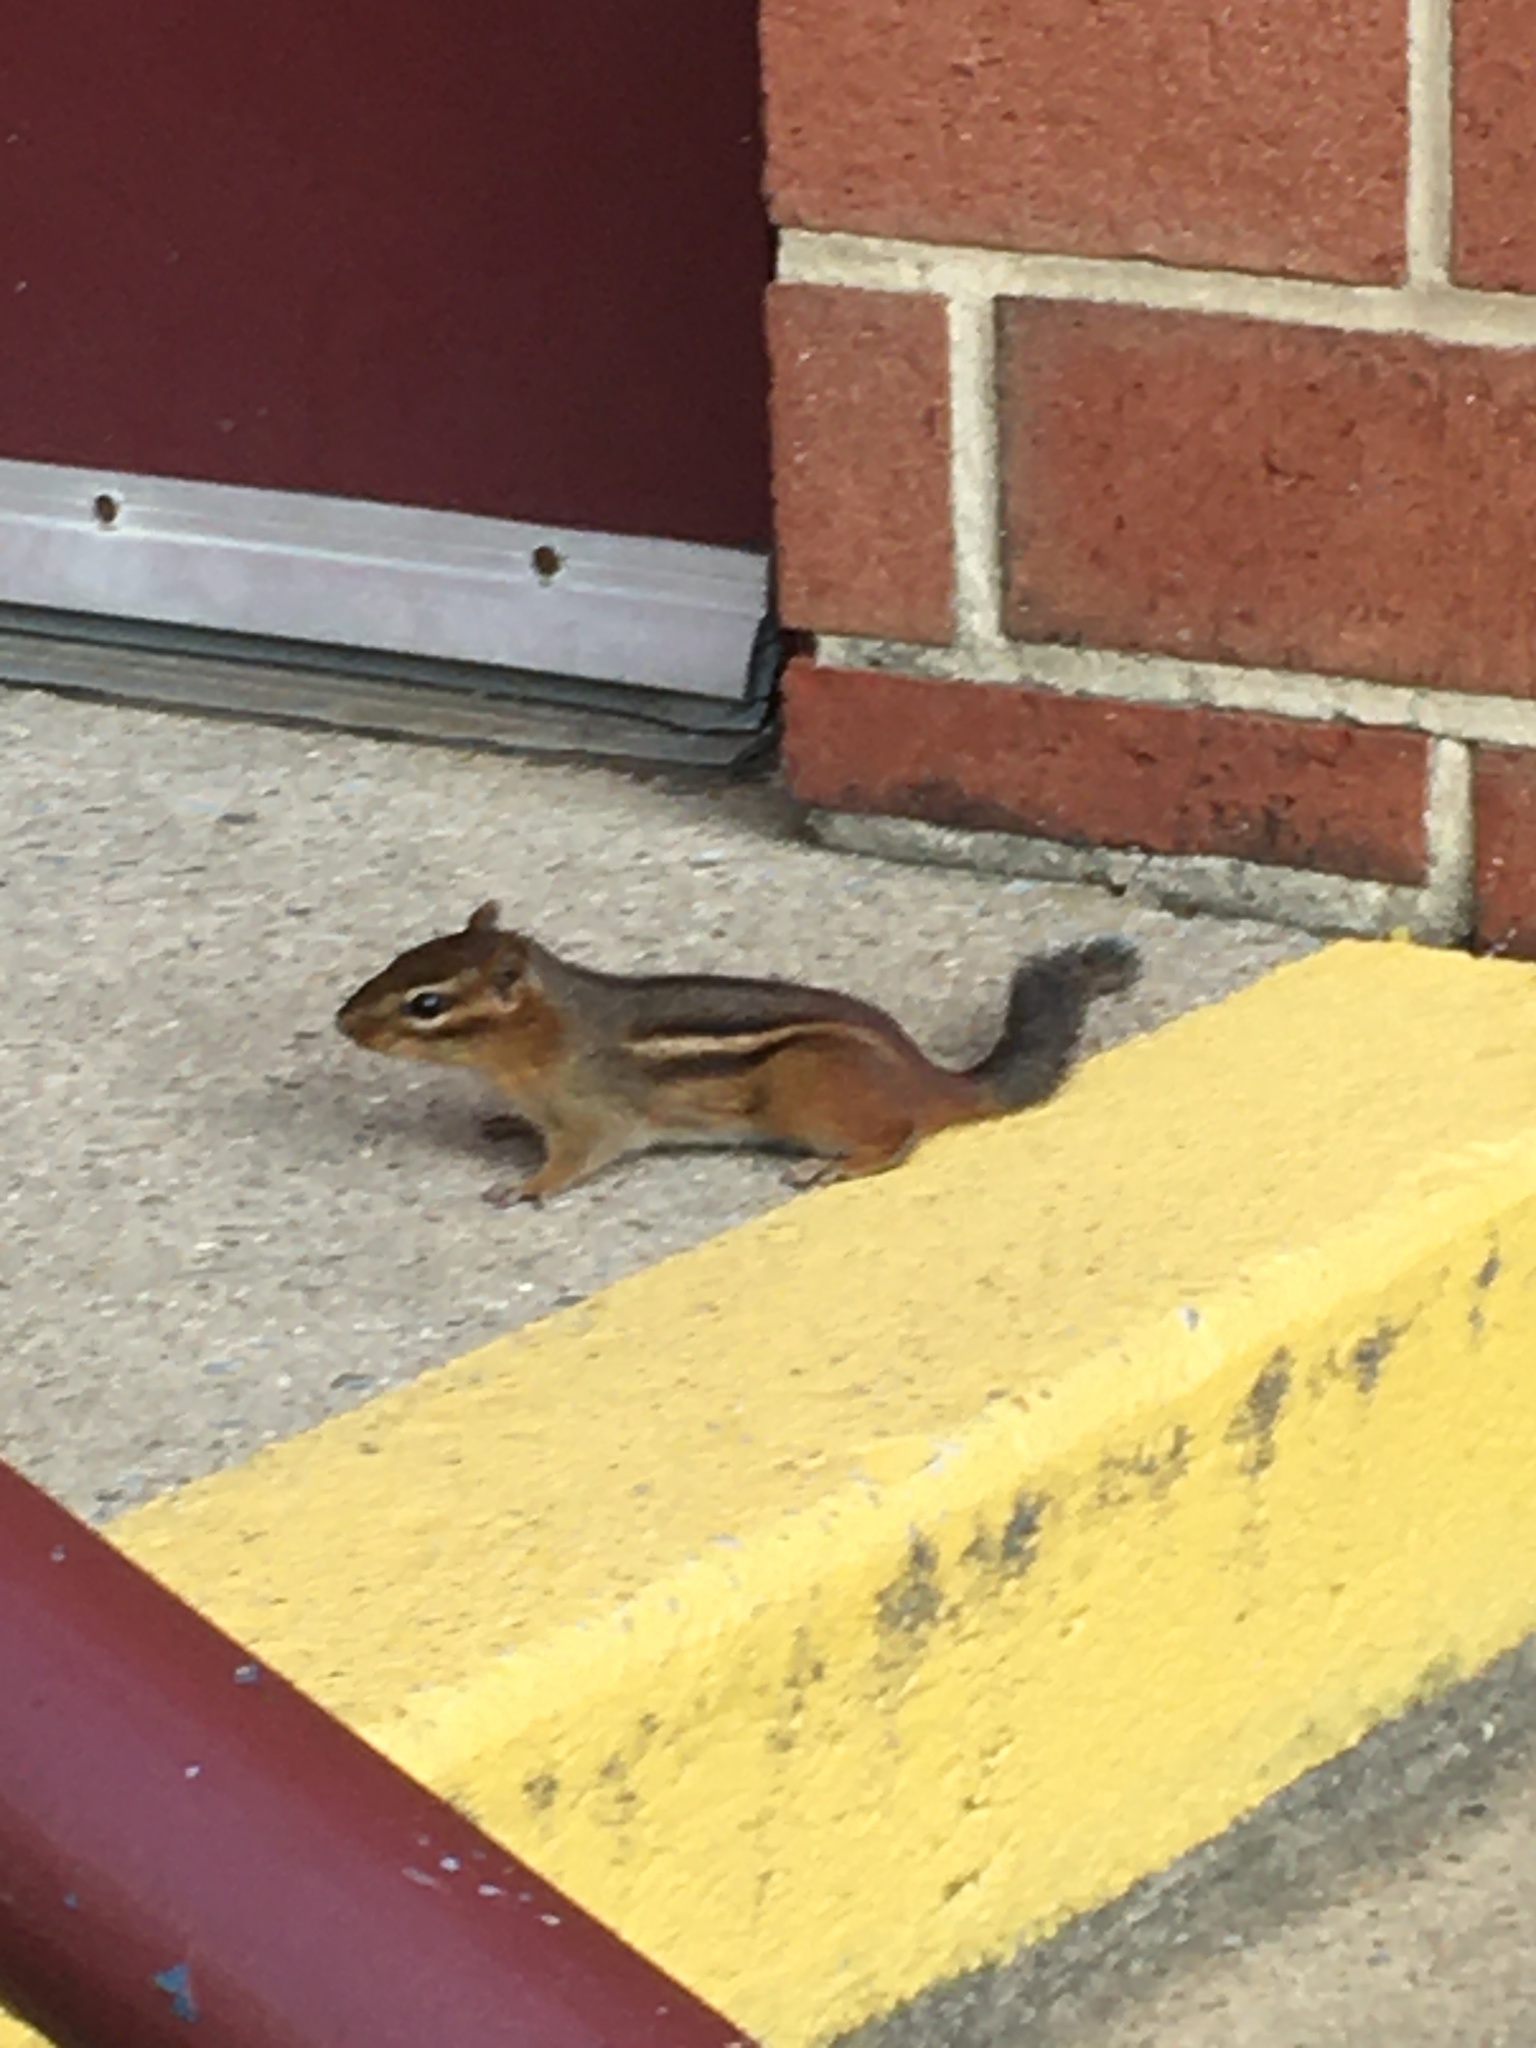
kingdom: Animalia
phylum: Chordata
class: Mammalia
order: Rodentia
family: Sciuridae
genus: Tamias
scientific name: Tamias striatus
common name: Eastern chipmunk
